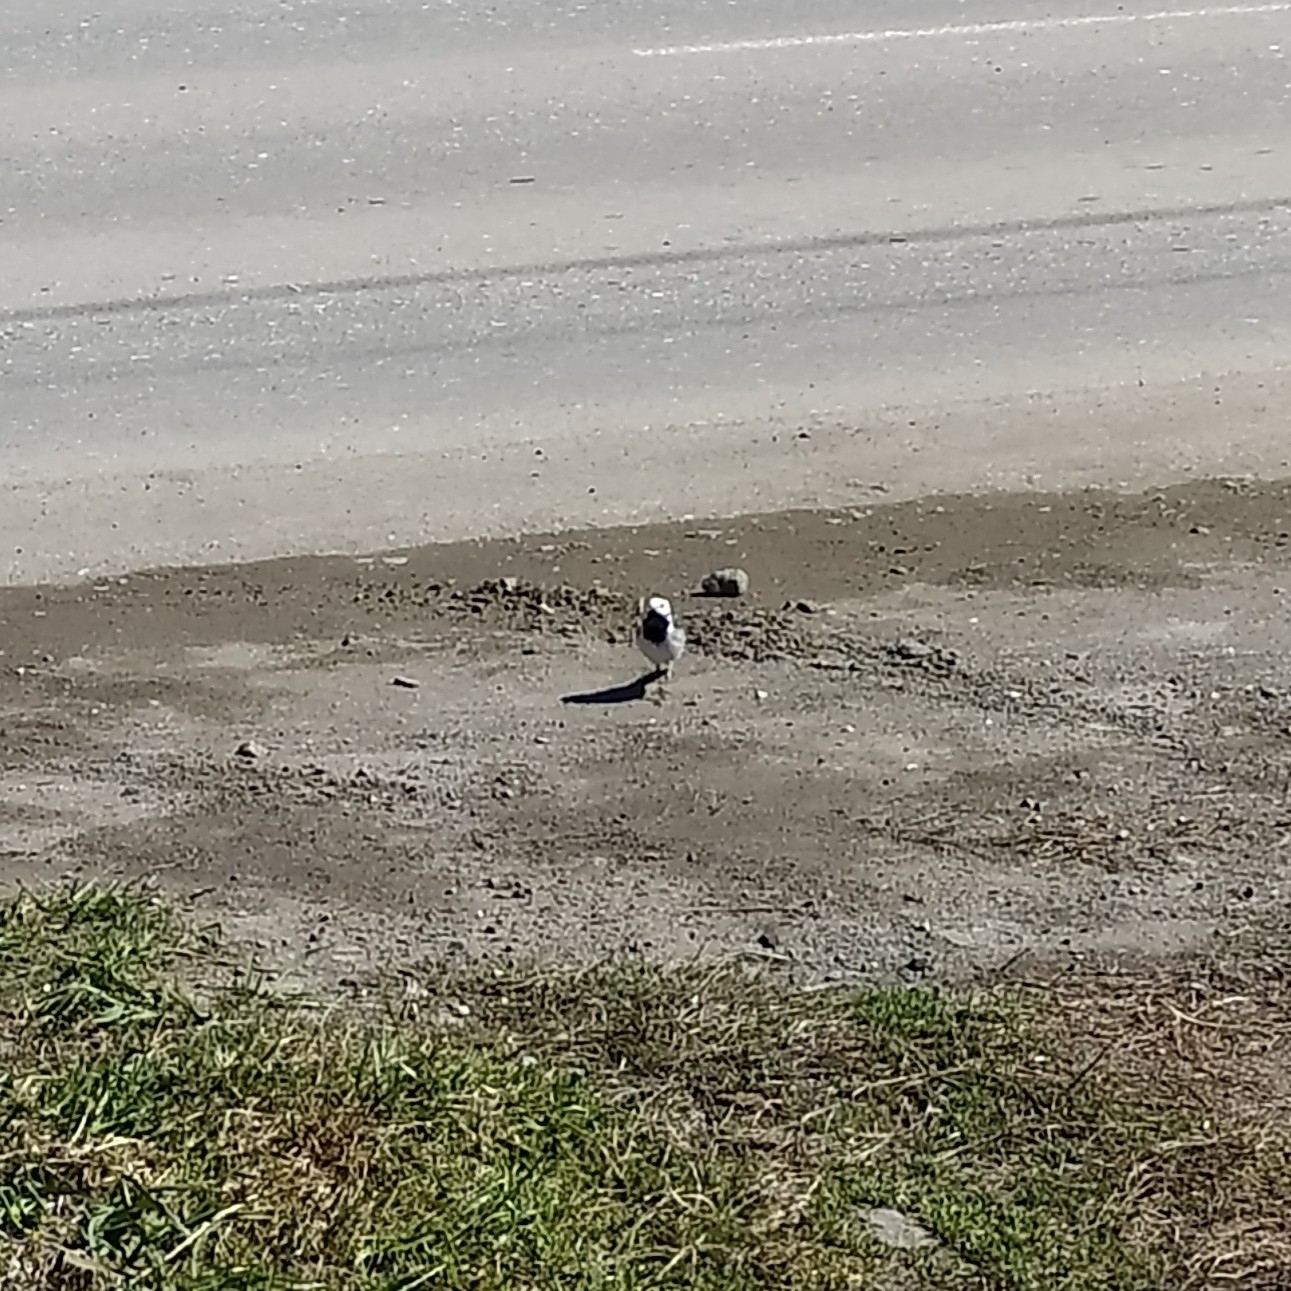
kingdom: Animalia
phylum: Chordata
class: Aves
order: Passeriformes
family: Motacillidae
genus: Motacilla
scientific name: Motacilla alba
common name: White wagtail
